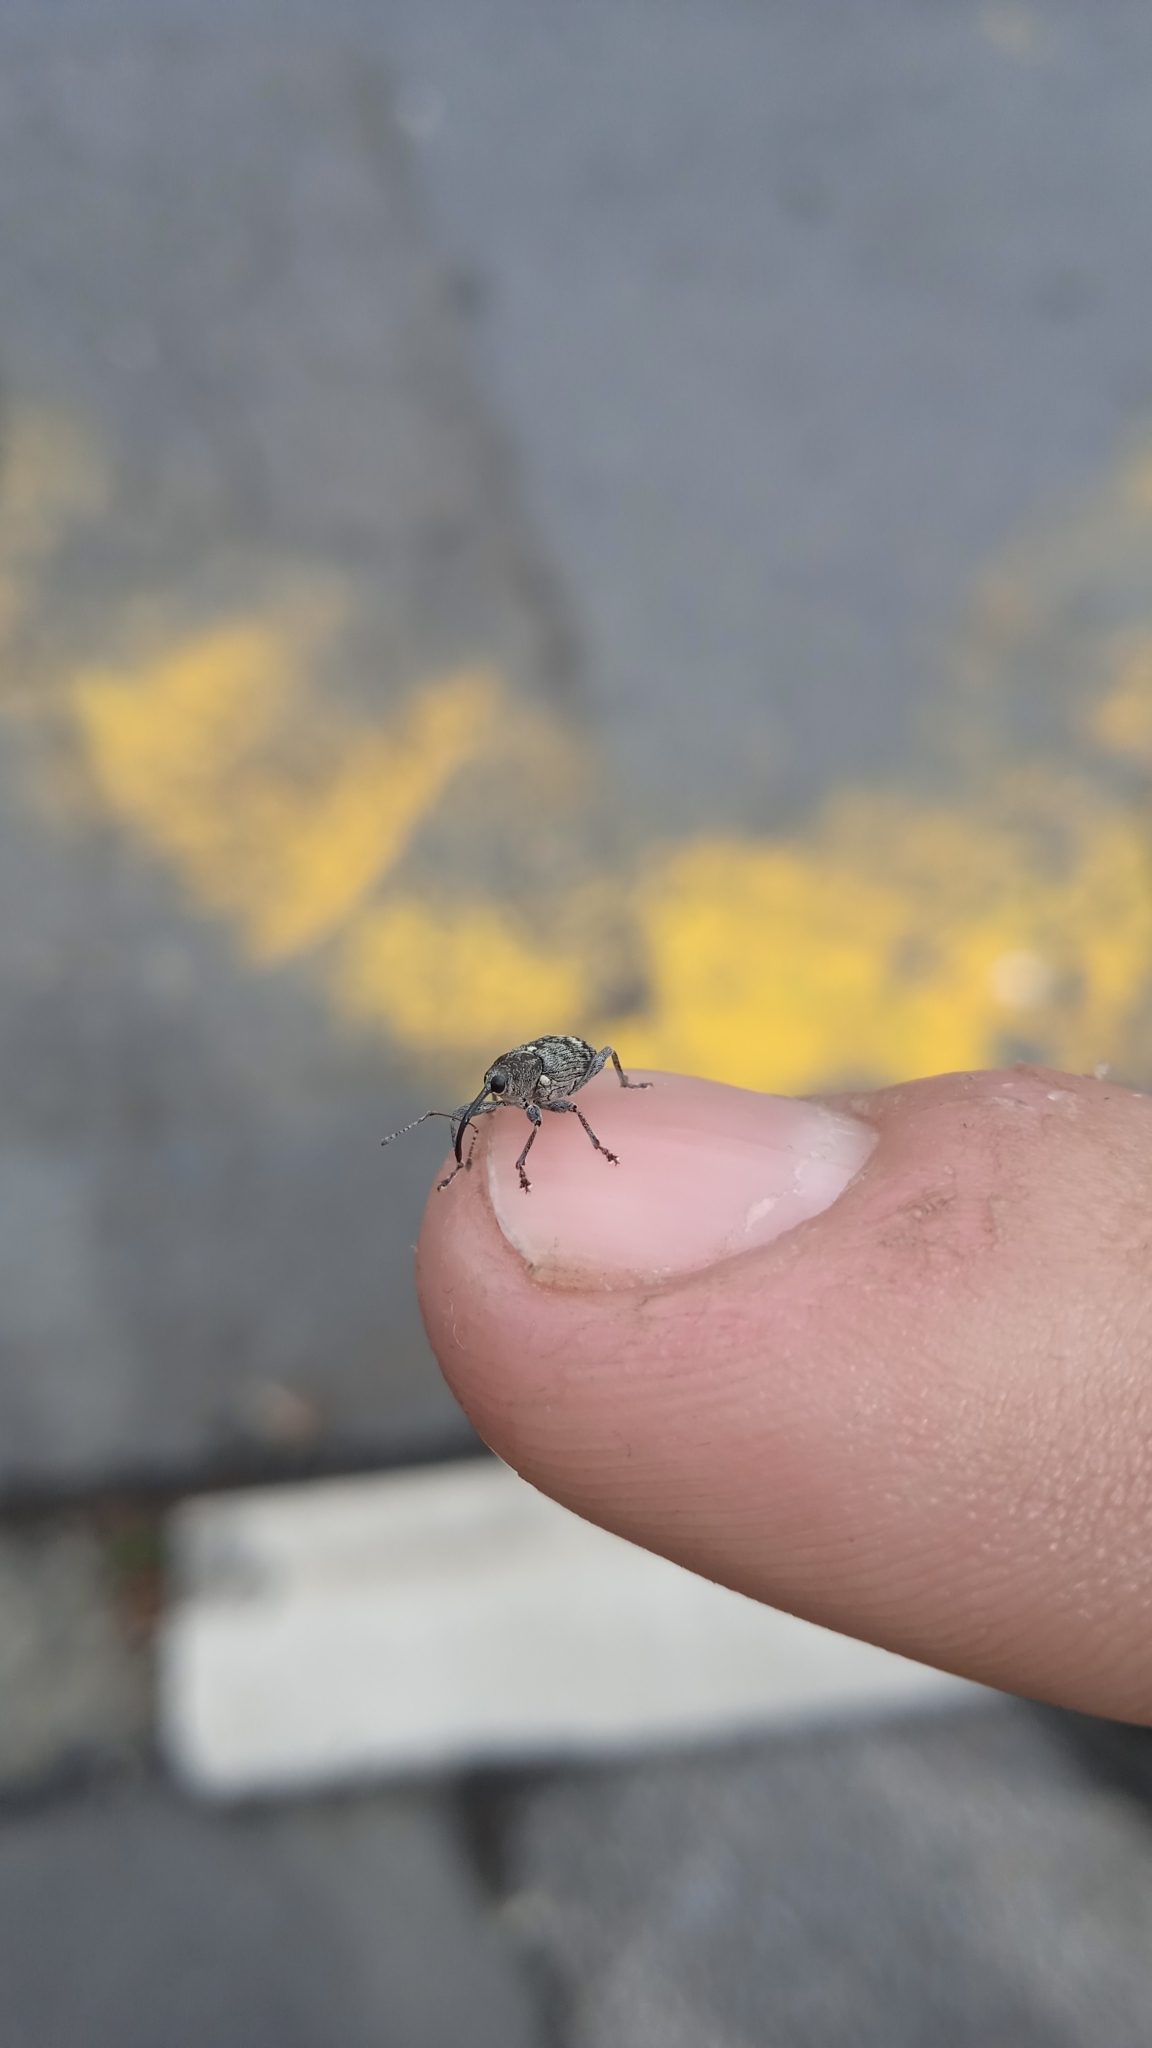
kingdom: Animalia
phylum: Arthropoda
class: Insecta
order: Coleoptera
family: Curculionidae
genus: Curculio
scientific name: Curculio villosus
